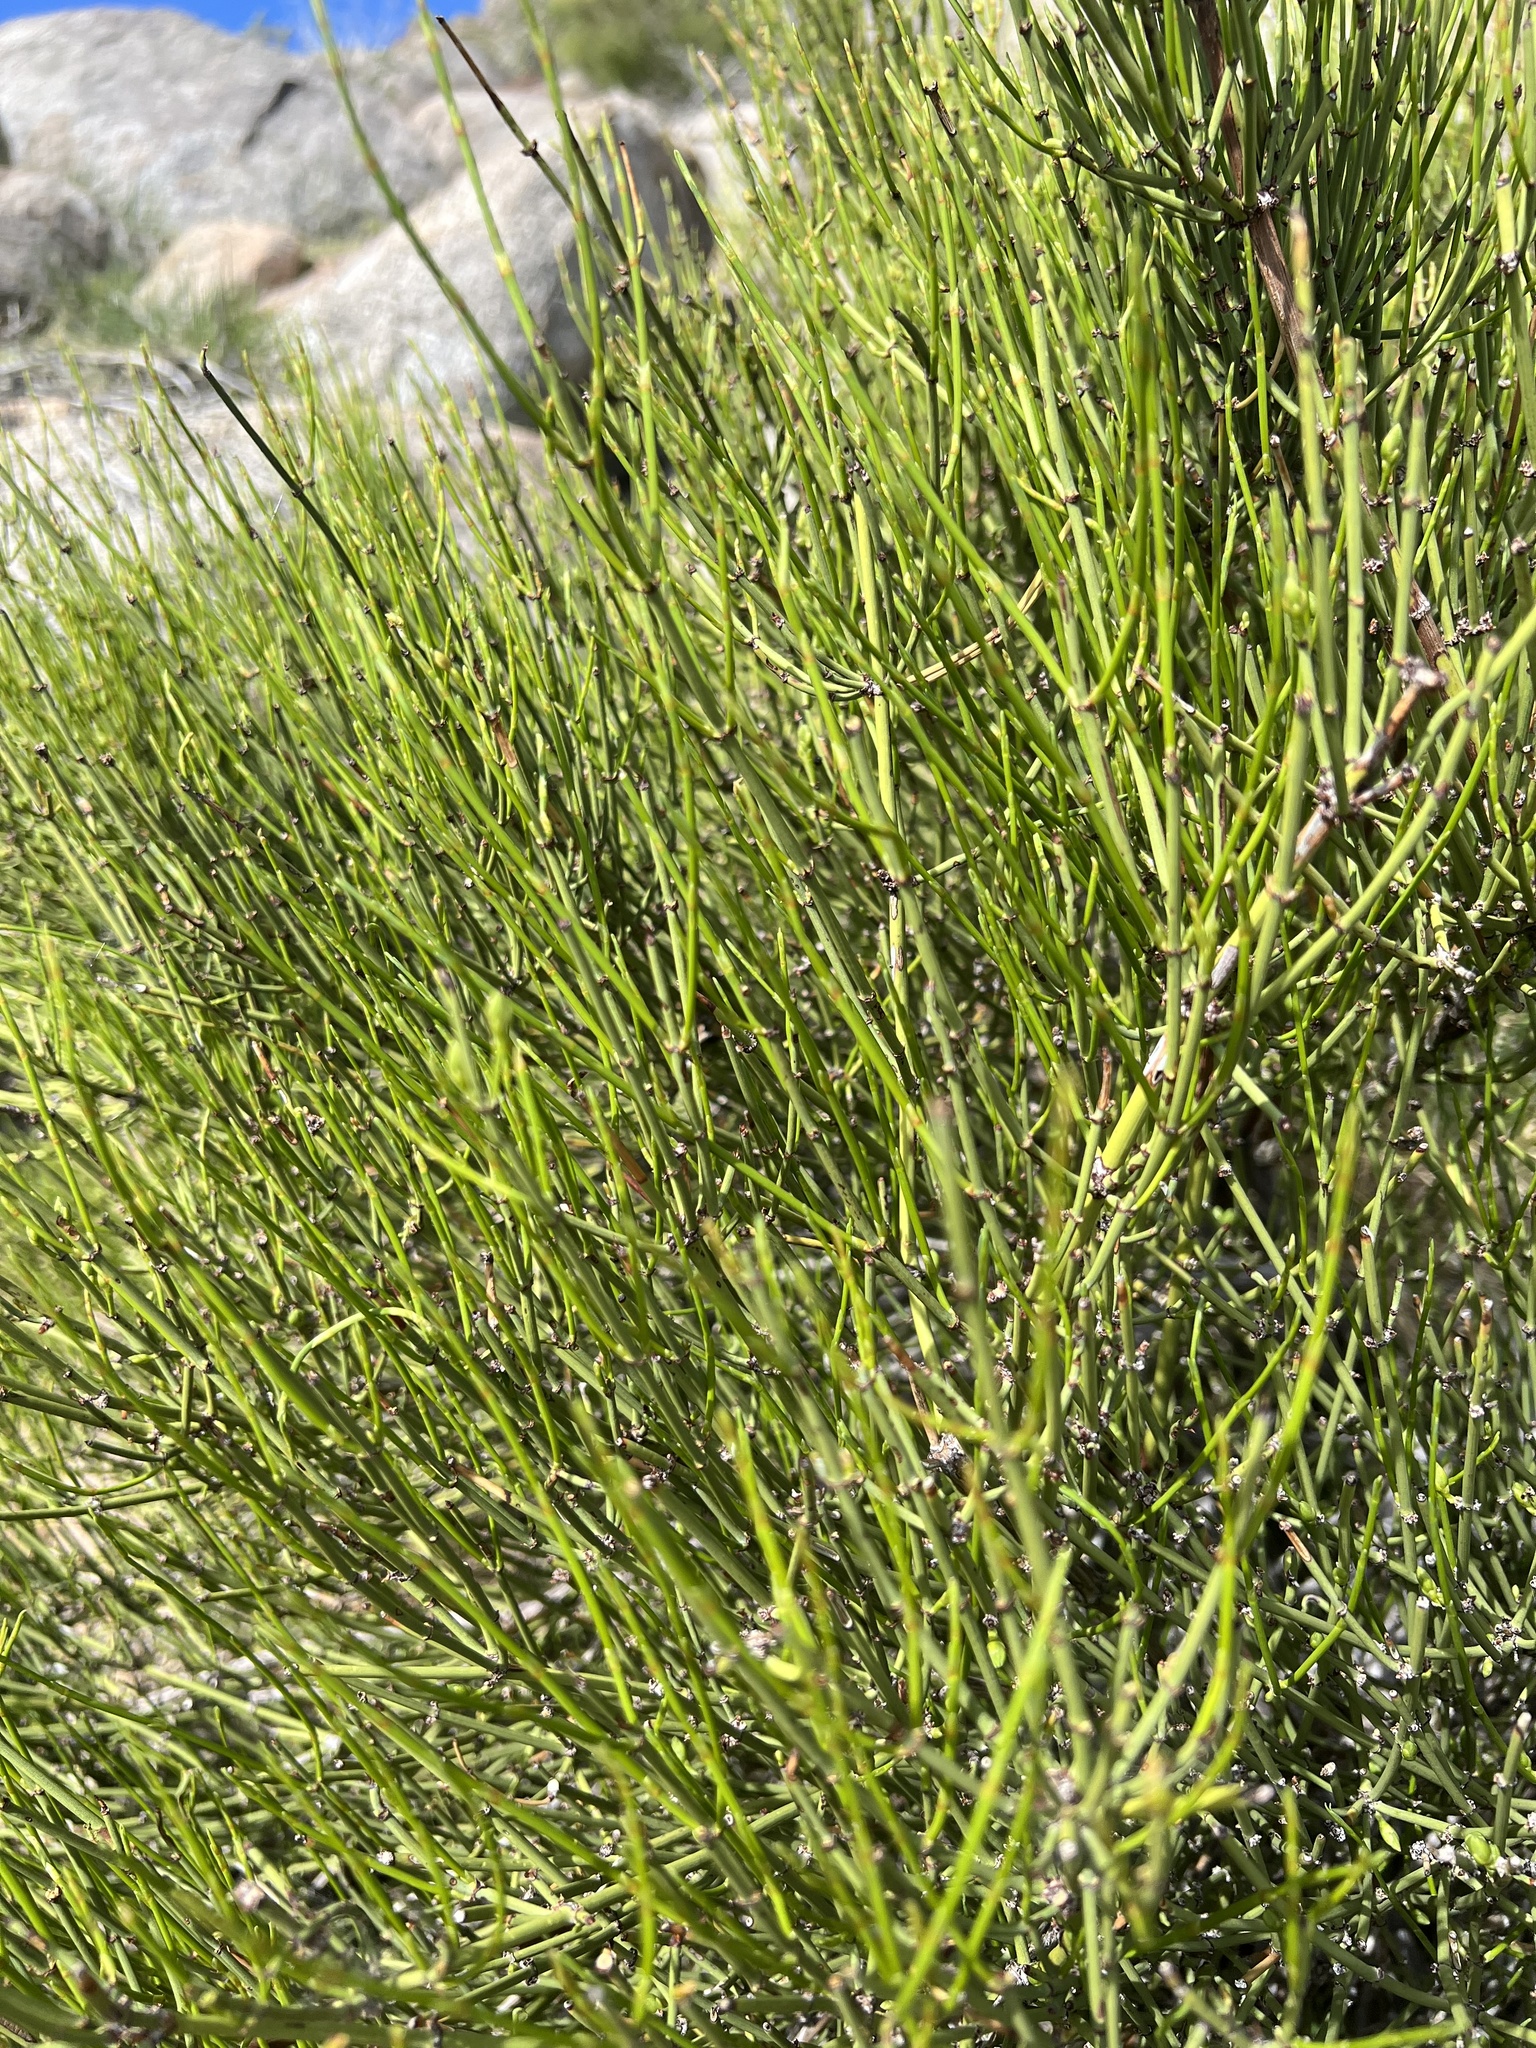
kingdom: Plantae
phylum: Tracheophyta
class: Gnetopsida
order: Ephedrales
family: Ephedraceae
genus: Ephedra
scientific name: Ephedra viridis
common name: Green ephedra
